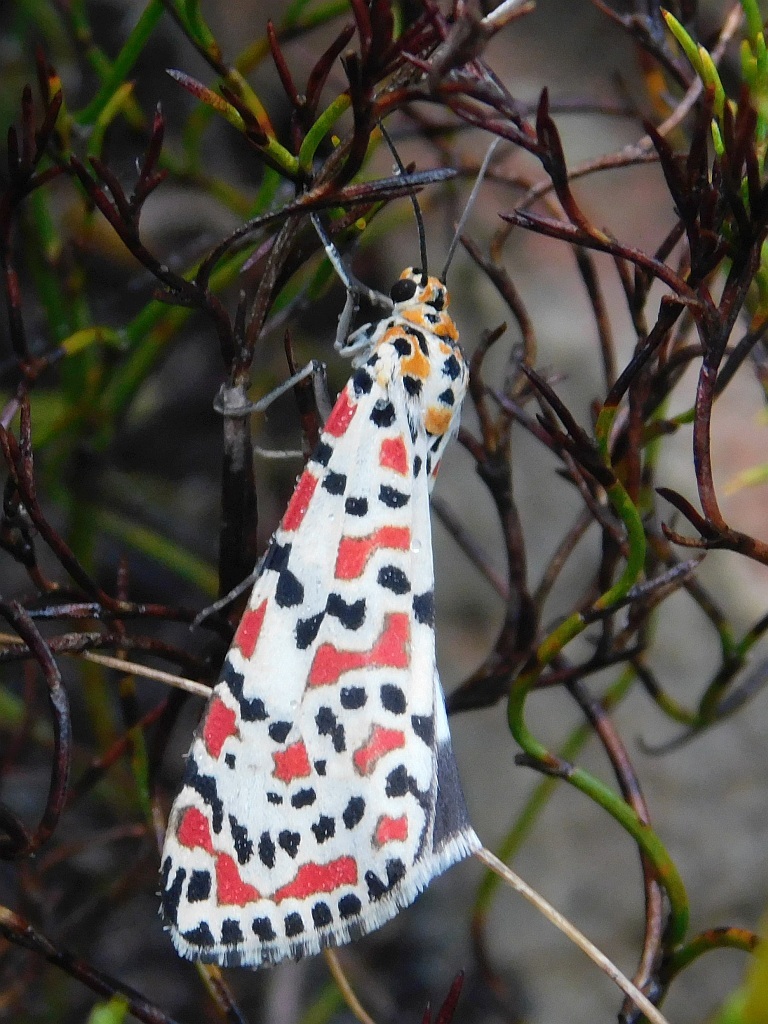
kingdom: Animalia
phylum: Arthropoda
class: Insecta
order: Lepidoptera
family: Erebidae
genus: Utetheisa
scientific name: Utetheisa pulchella
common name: Crimson speckled
